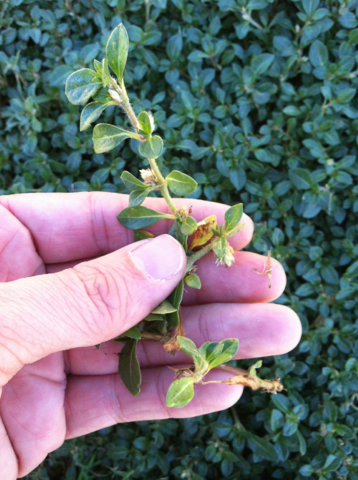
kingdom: Plantae
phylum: Tracheophyta
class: Magnoliopsida
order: Caryophyllales
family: Amaranthaceae
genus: Alternanthera
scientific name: Alternanthera caracasana
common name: Washerwoman
